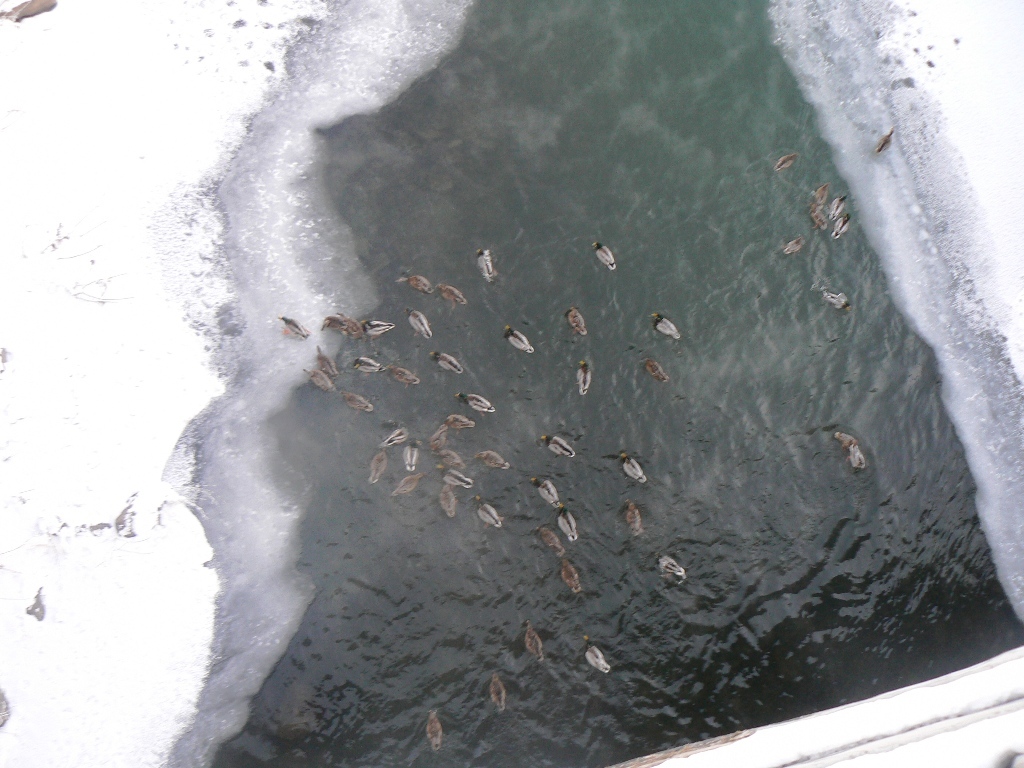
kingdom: Animalia
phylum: Chordata
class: Aves
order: Anseriformes
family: Anatidae
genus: Anas
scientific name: Anas platyrhynchos
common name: Mallard
